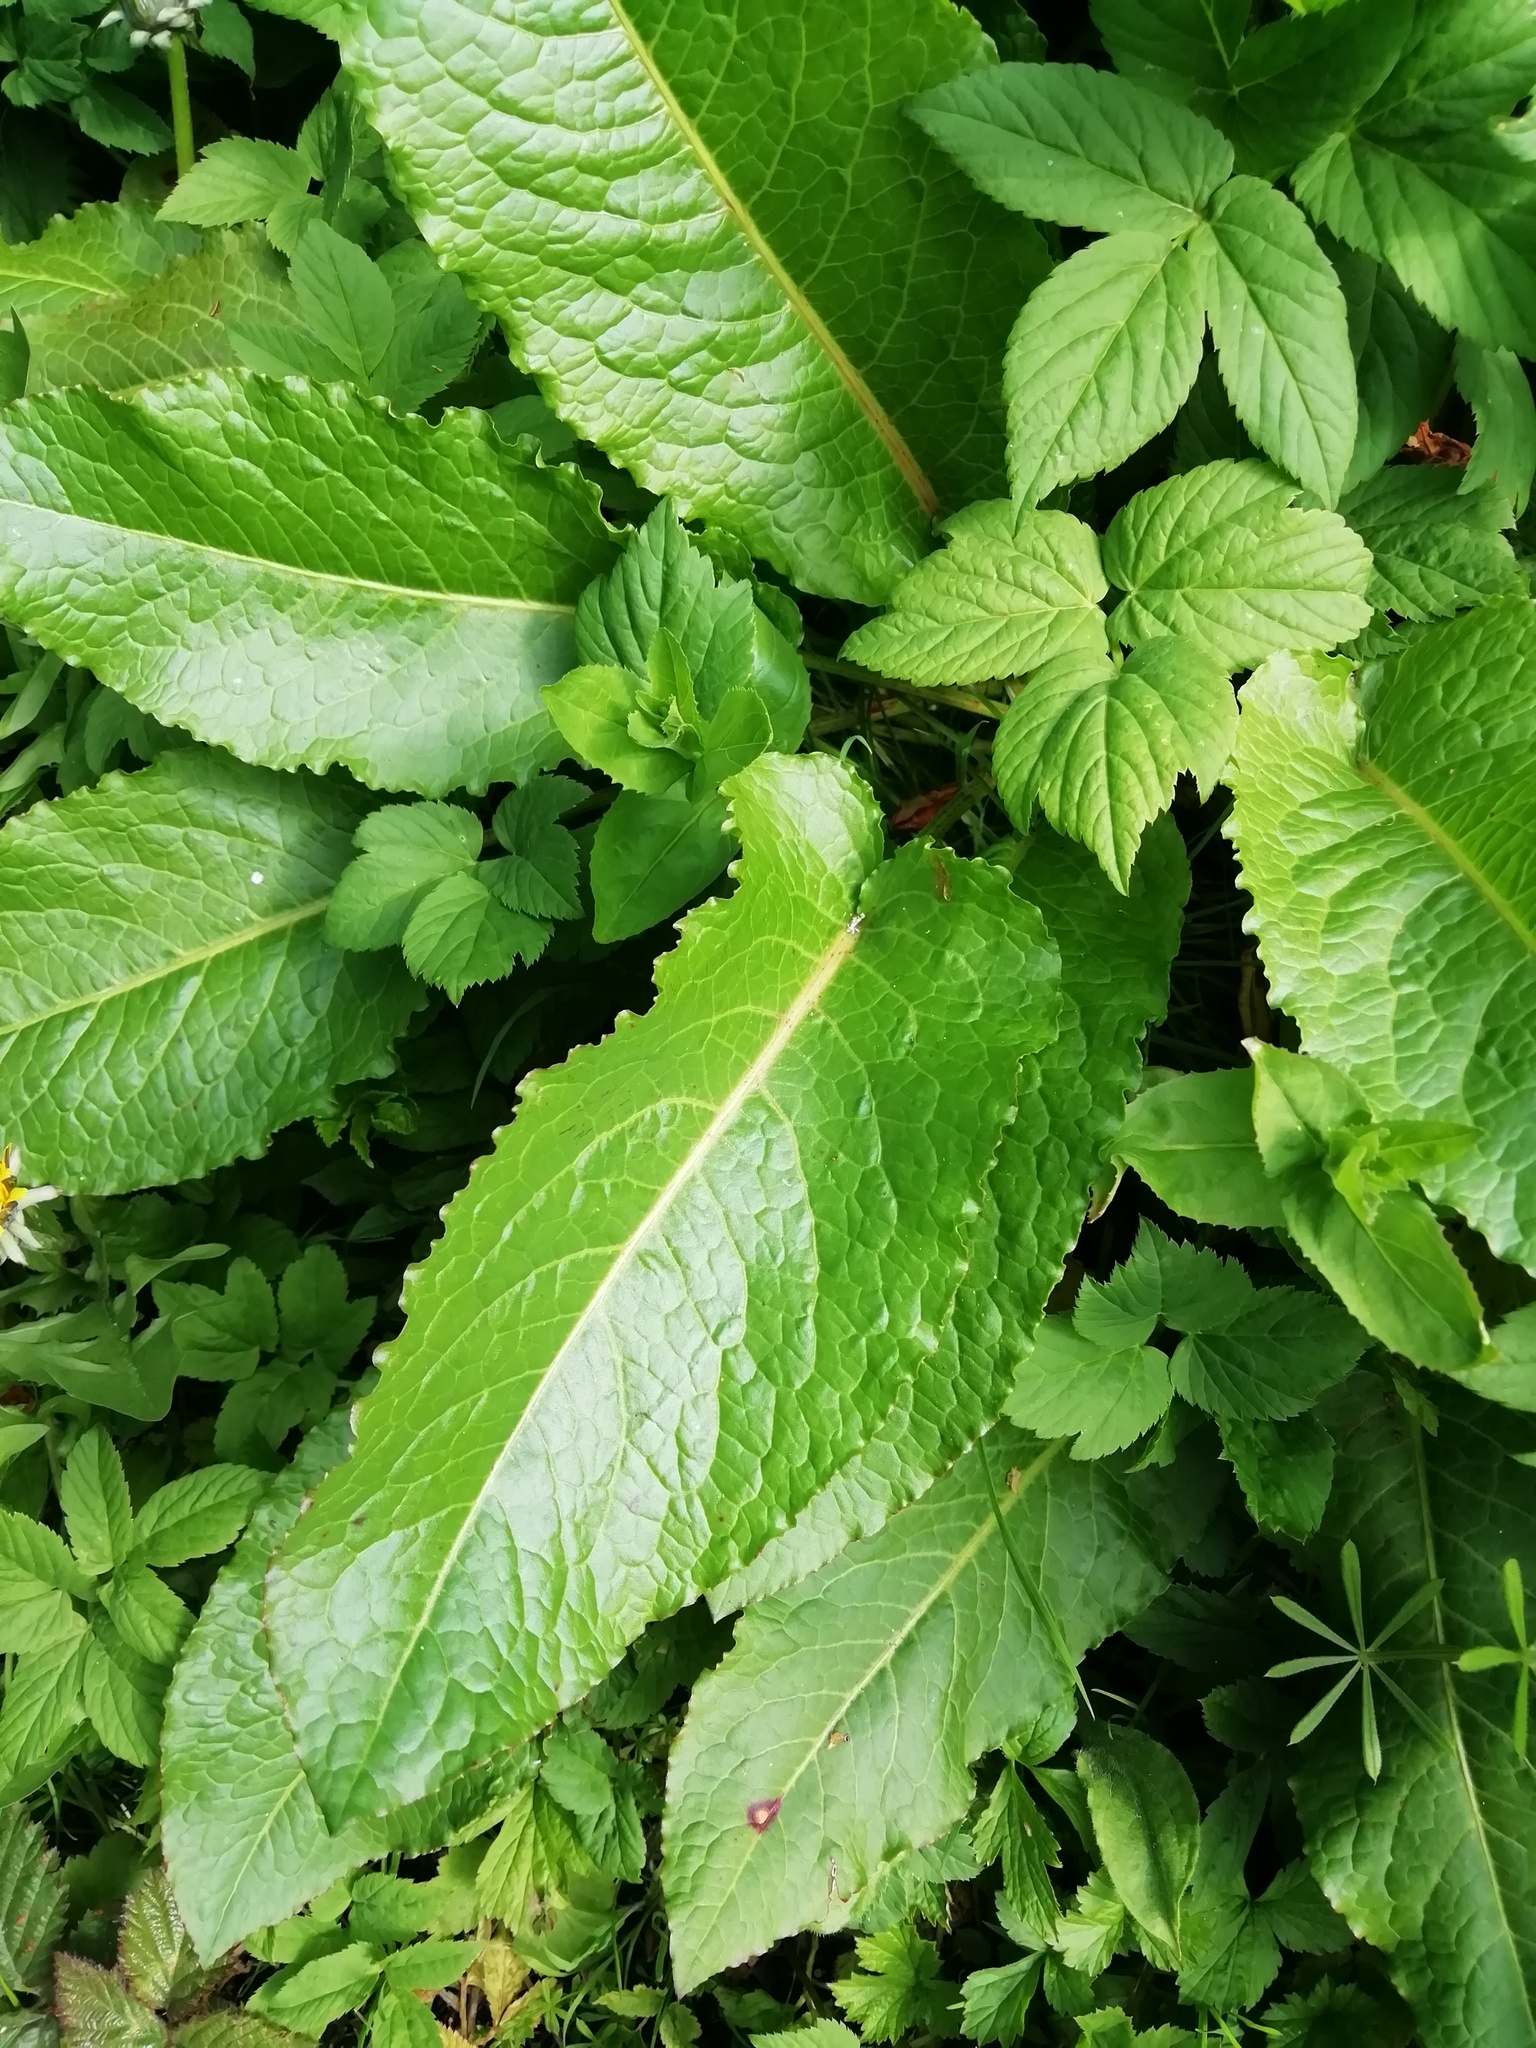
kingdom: Plantae
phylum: Tracheophyta
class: Magnoliopsida
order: Caryophyllales
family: Polygonaceae
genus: Rumex
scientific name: Rumex obtusifolius
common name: Bitter dock
